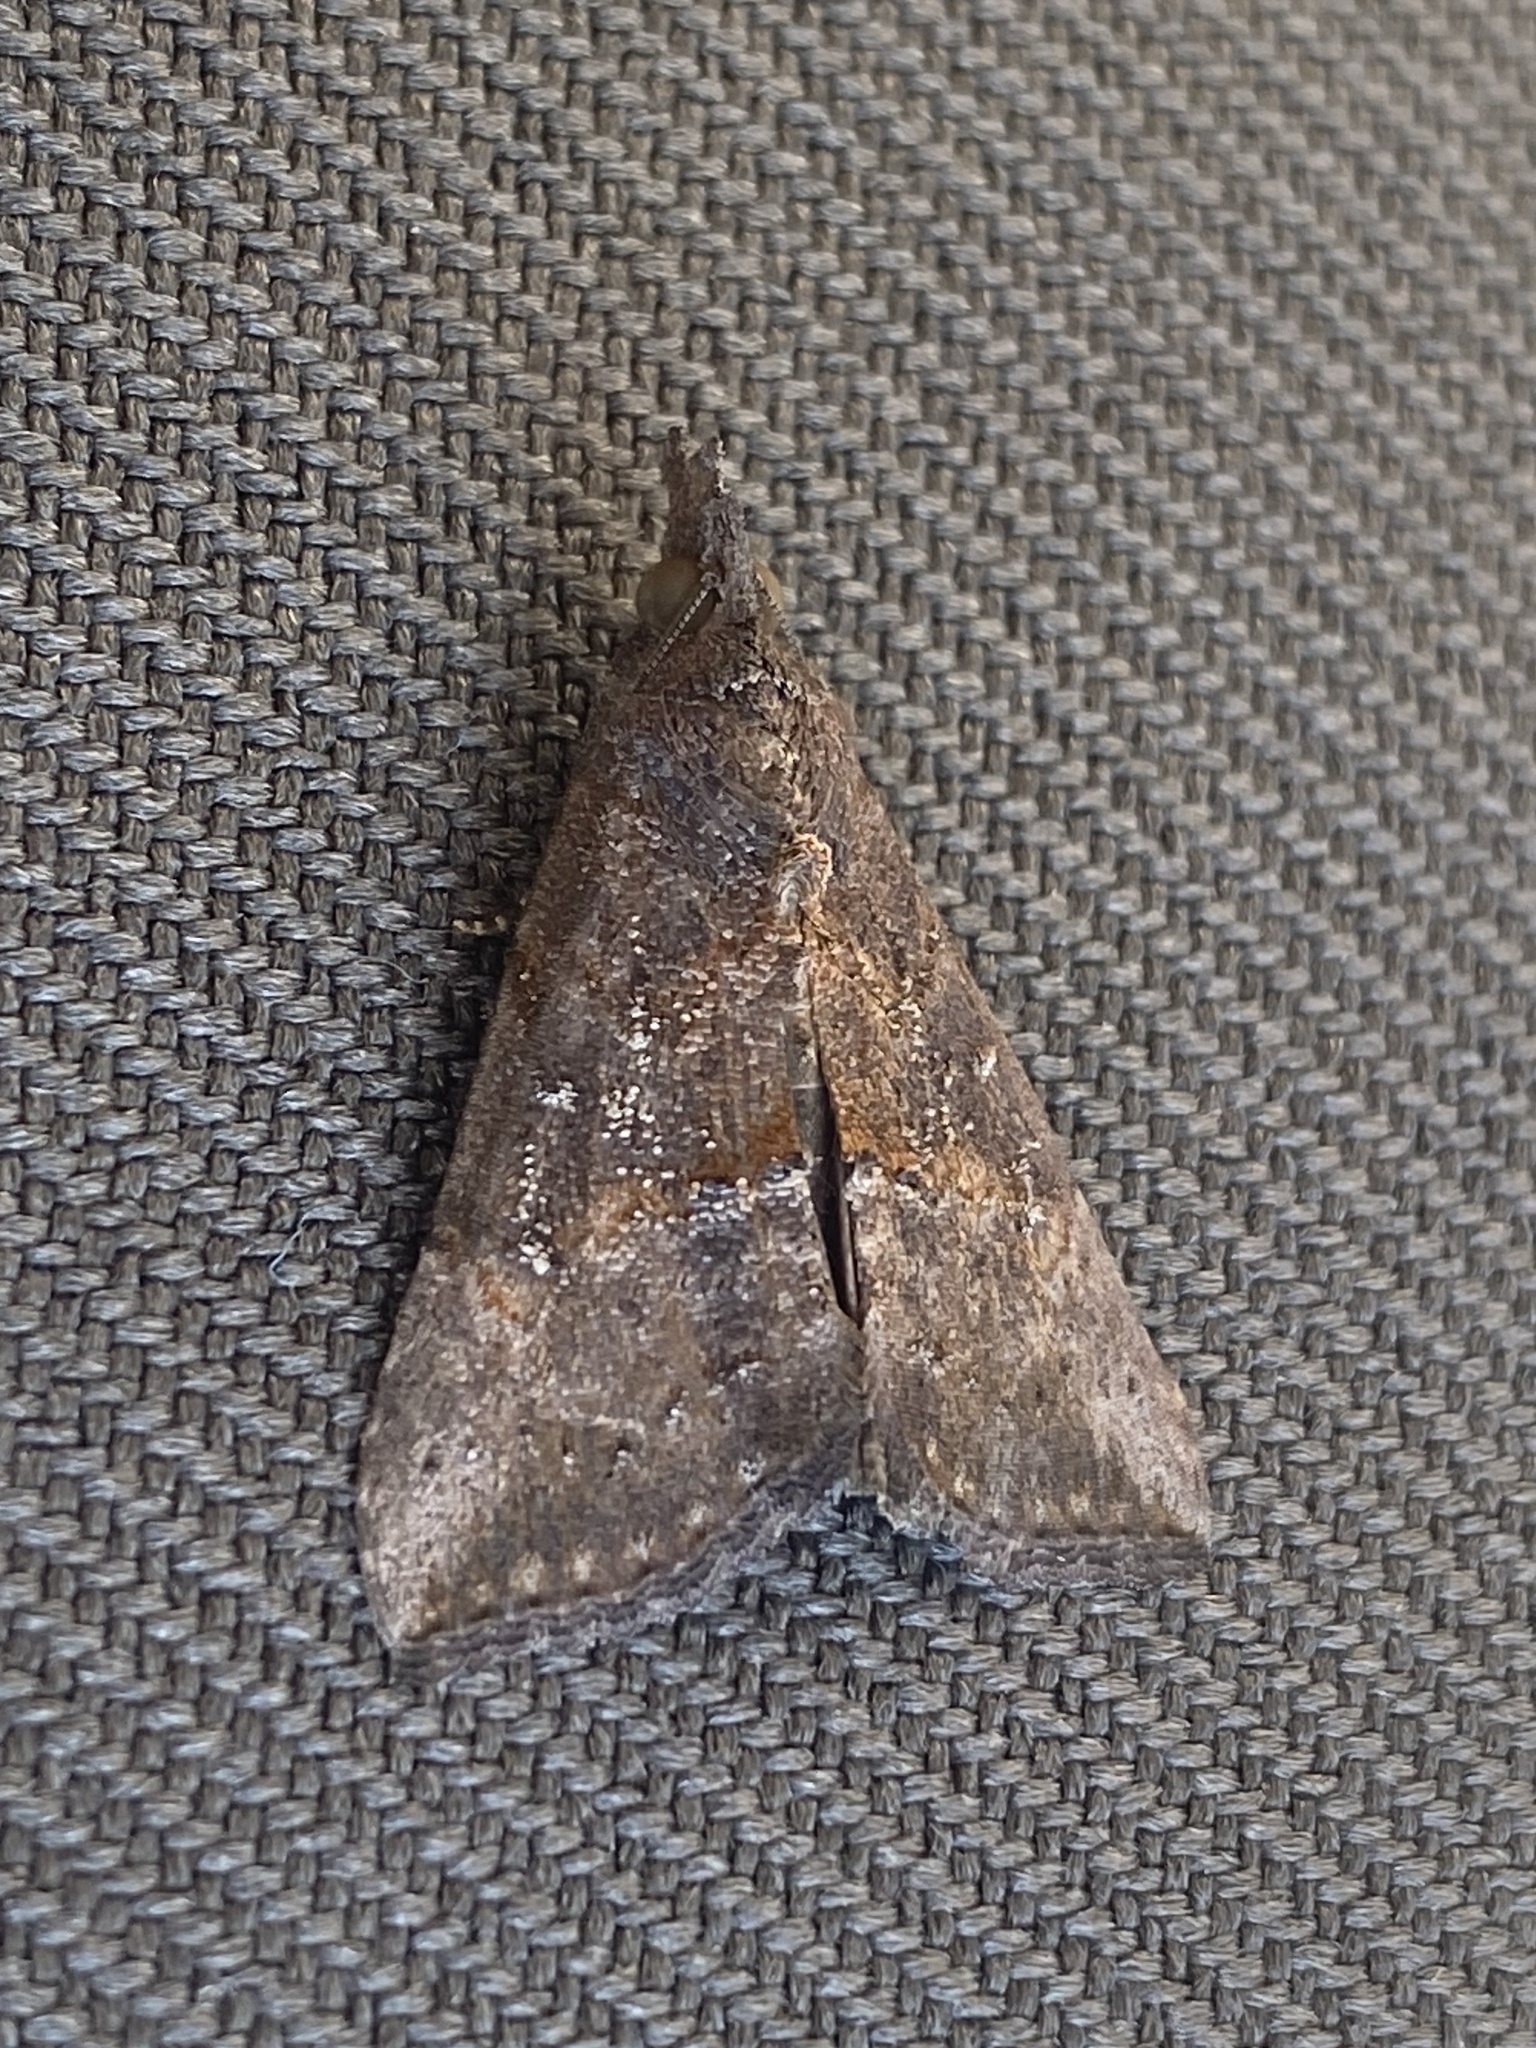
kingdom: Animalia
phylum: Arthropoda
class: Insecta
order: Lepidoptera
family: Erebidae
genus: Hypena
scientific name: Hypena scabra
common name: Green cloverworm
